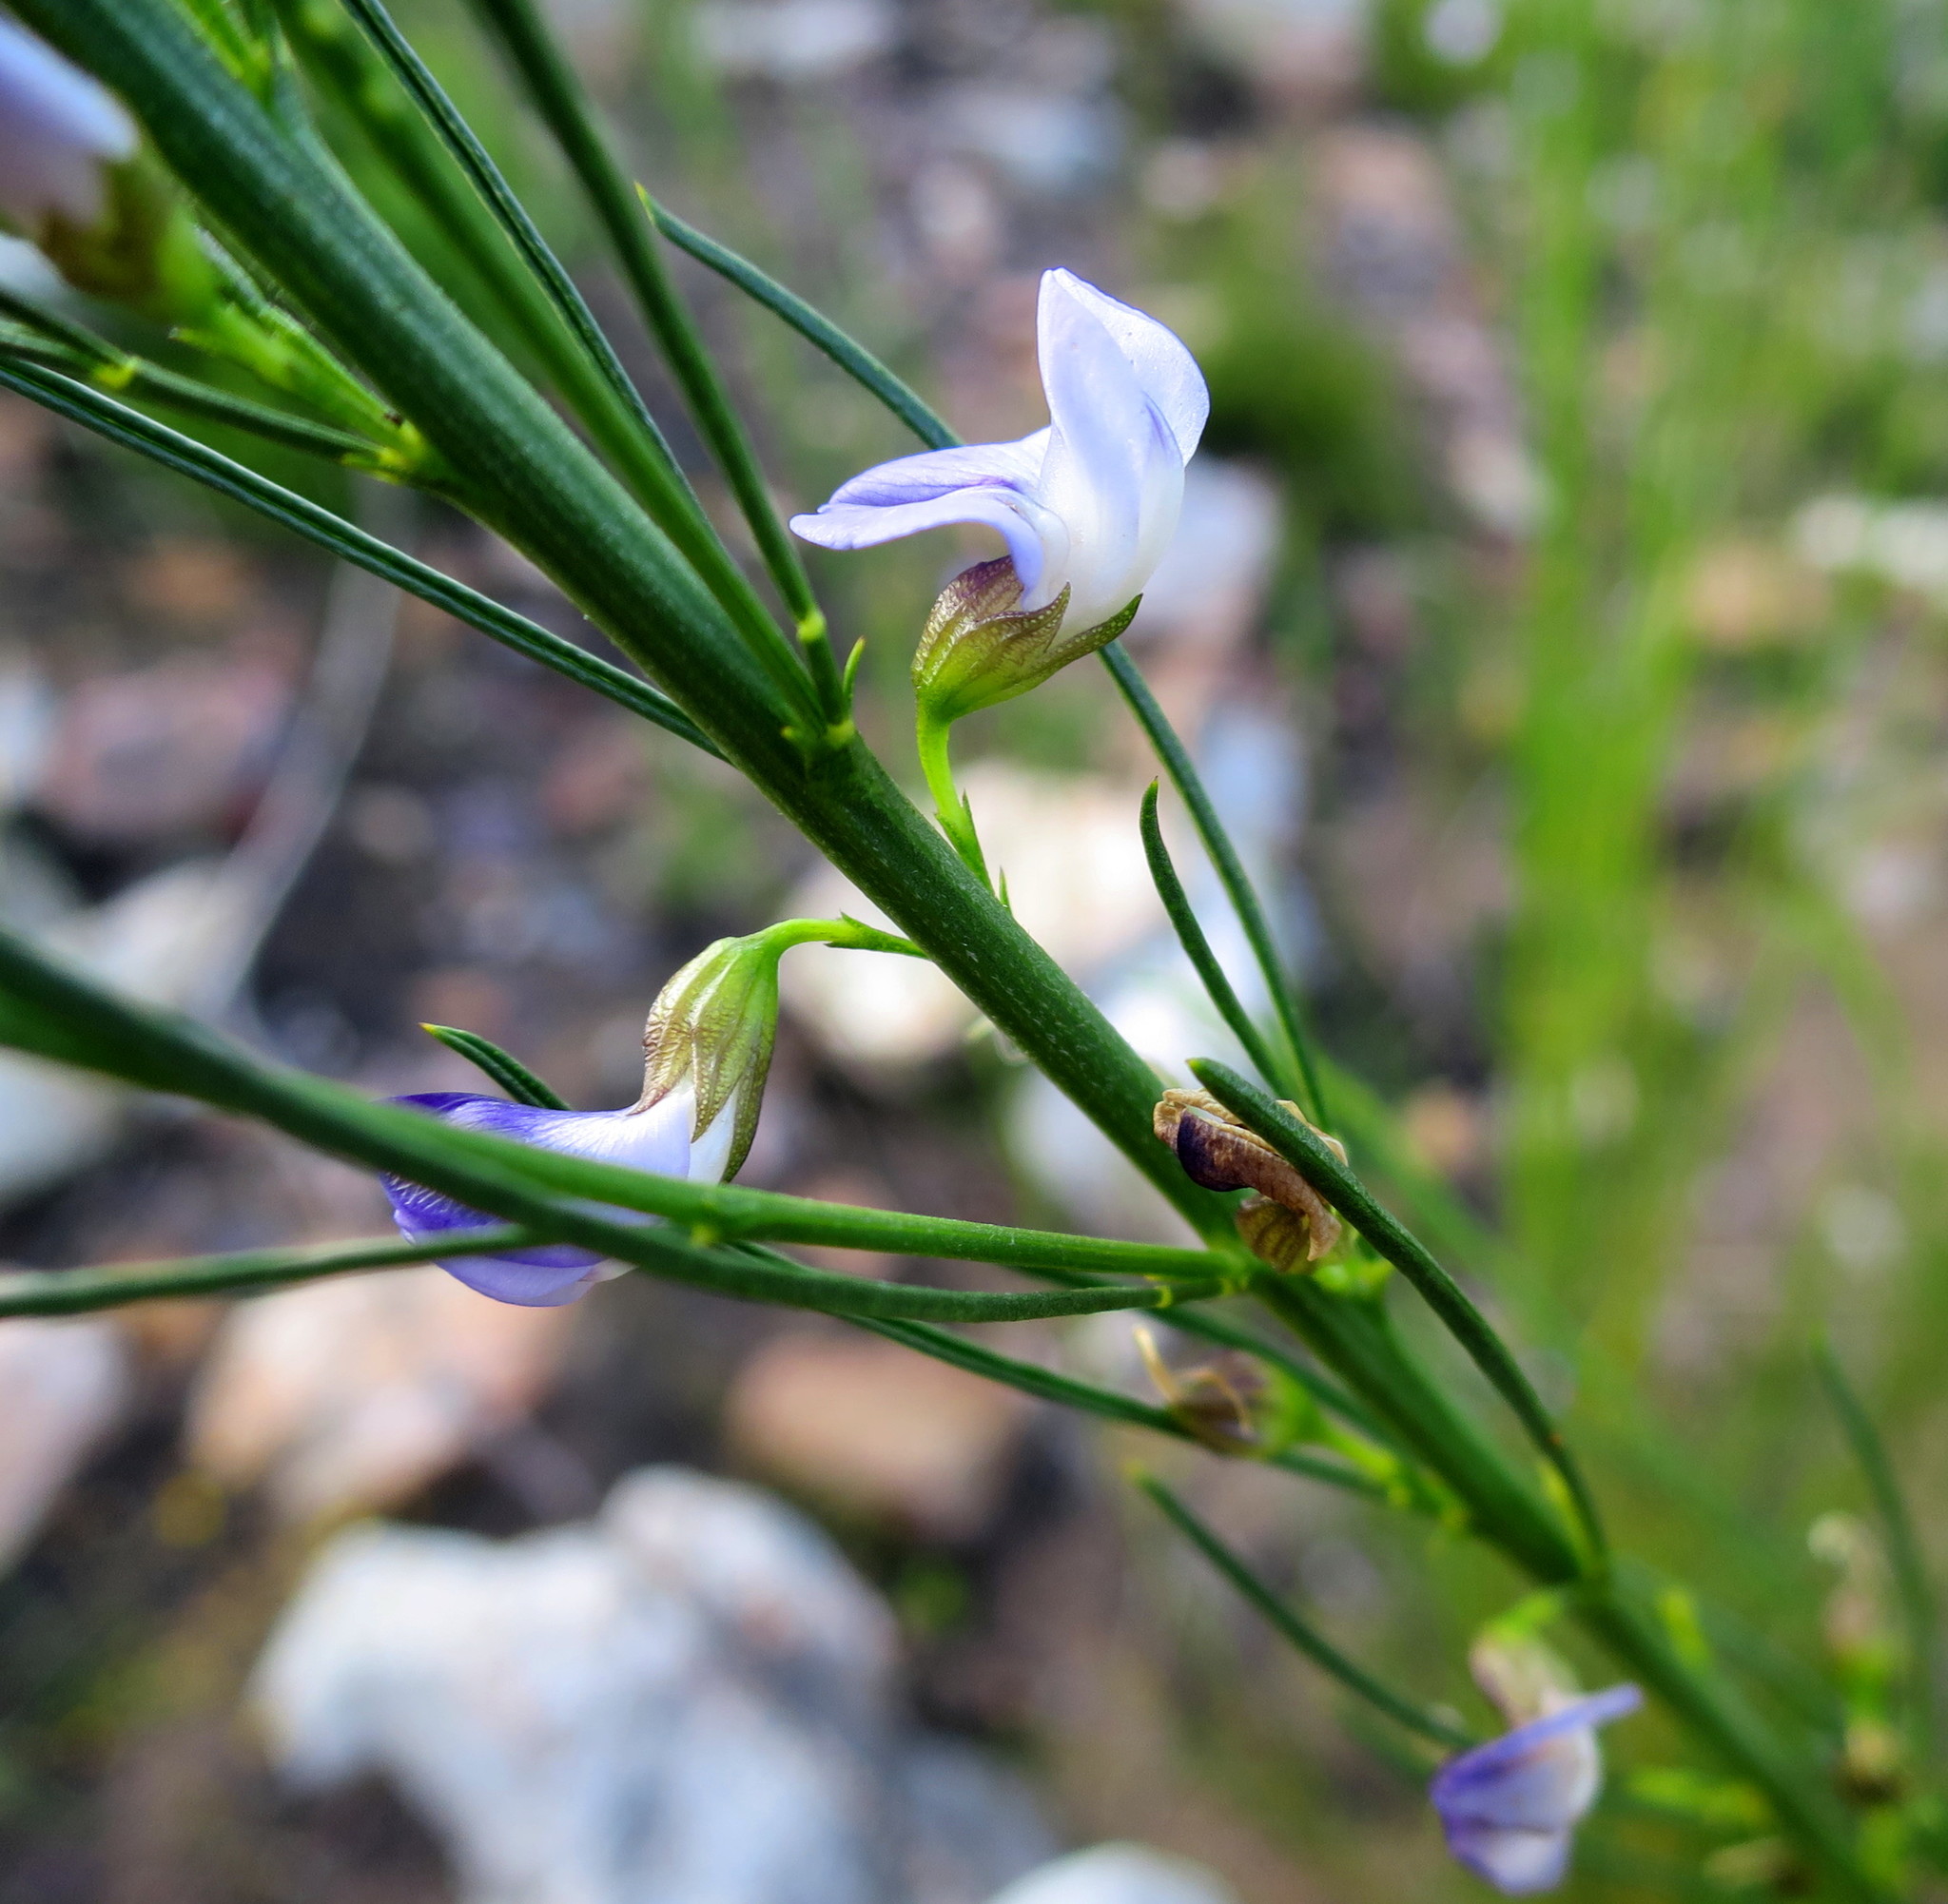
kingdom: Plantae
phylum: Tracheophyta
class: Magnoliopsida
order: Fabales
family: Fabaceae
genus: Psoralea
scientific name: Psoralea diturnerae
